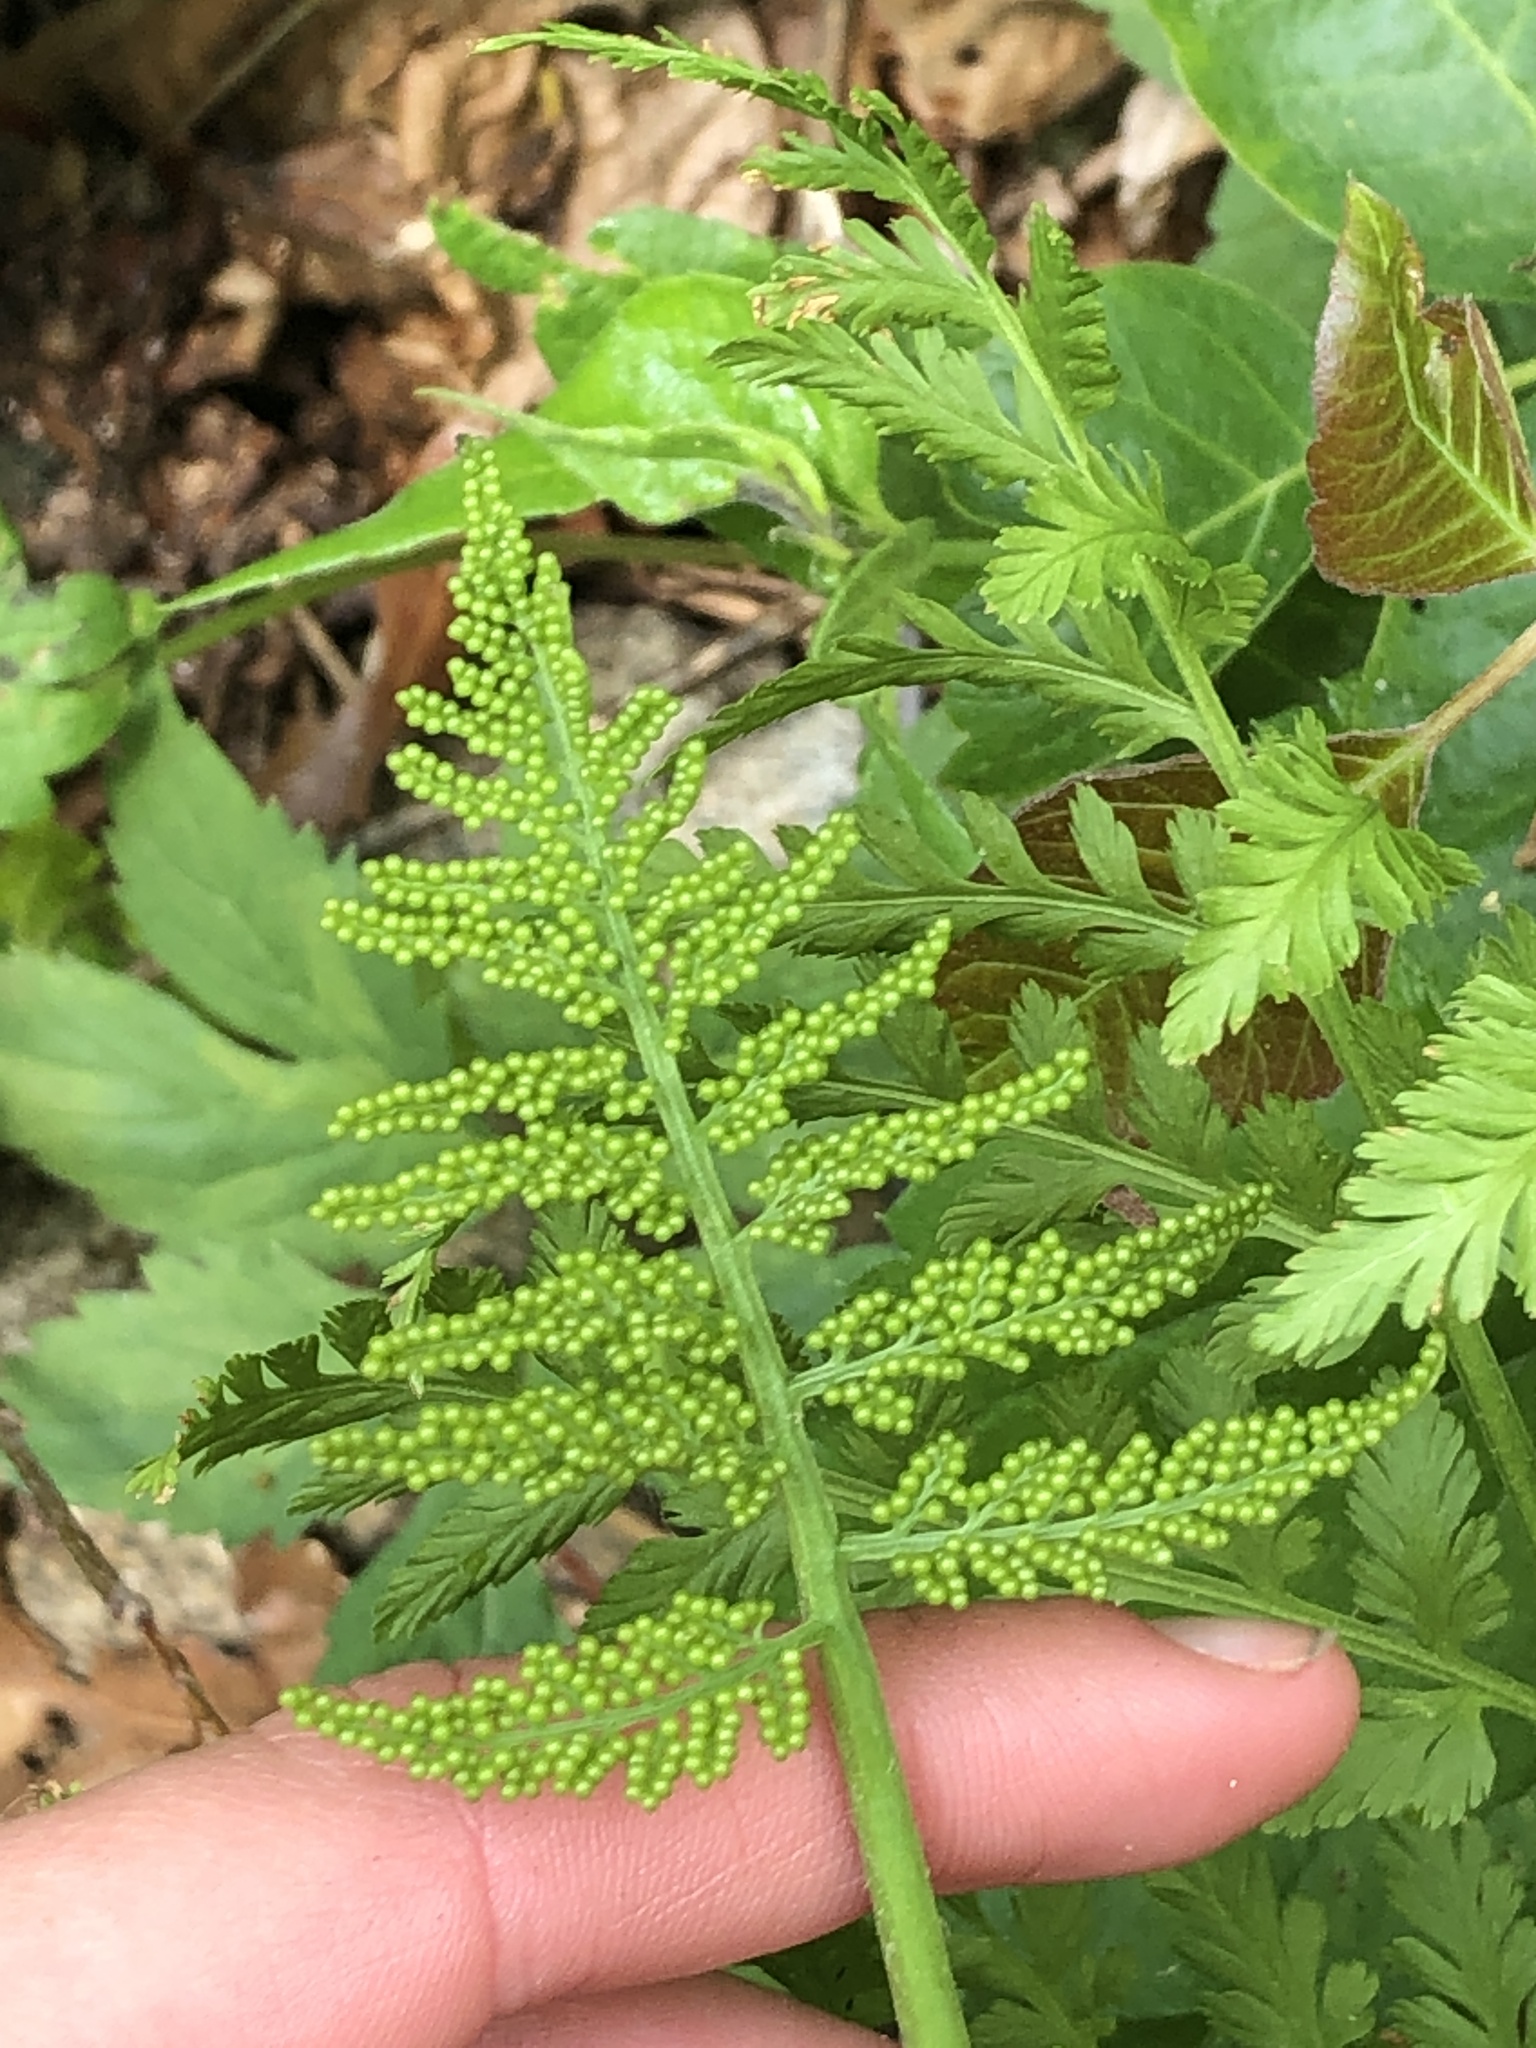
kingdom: Plantae
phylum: Tracheophyta
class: Polypodiopsida
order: Ophioglossales
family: Ophioglossaceae
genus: Botrypus
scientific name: Botrypus virginianus
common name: Common grapefern
